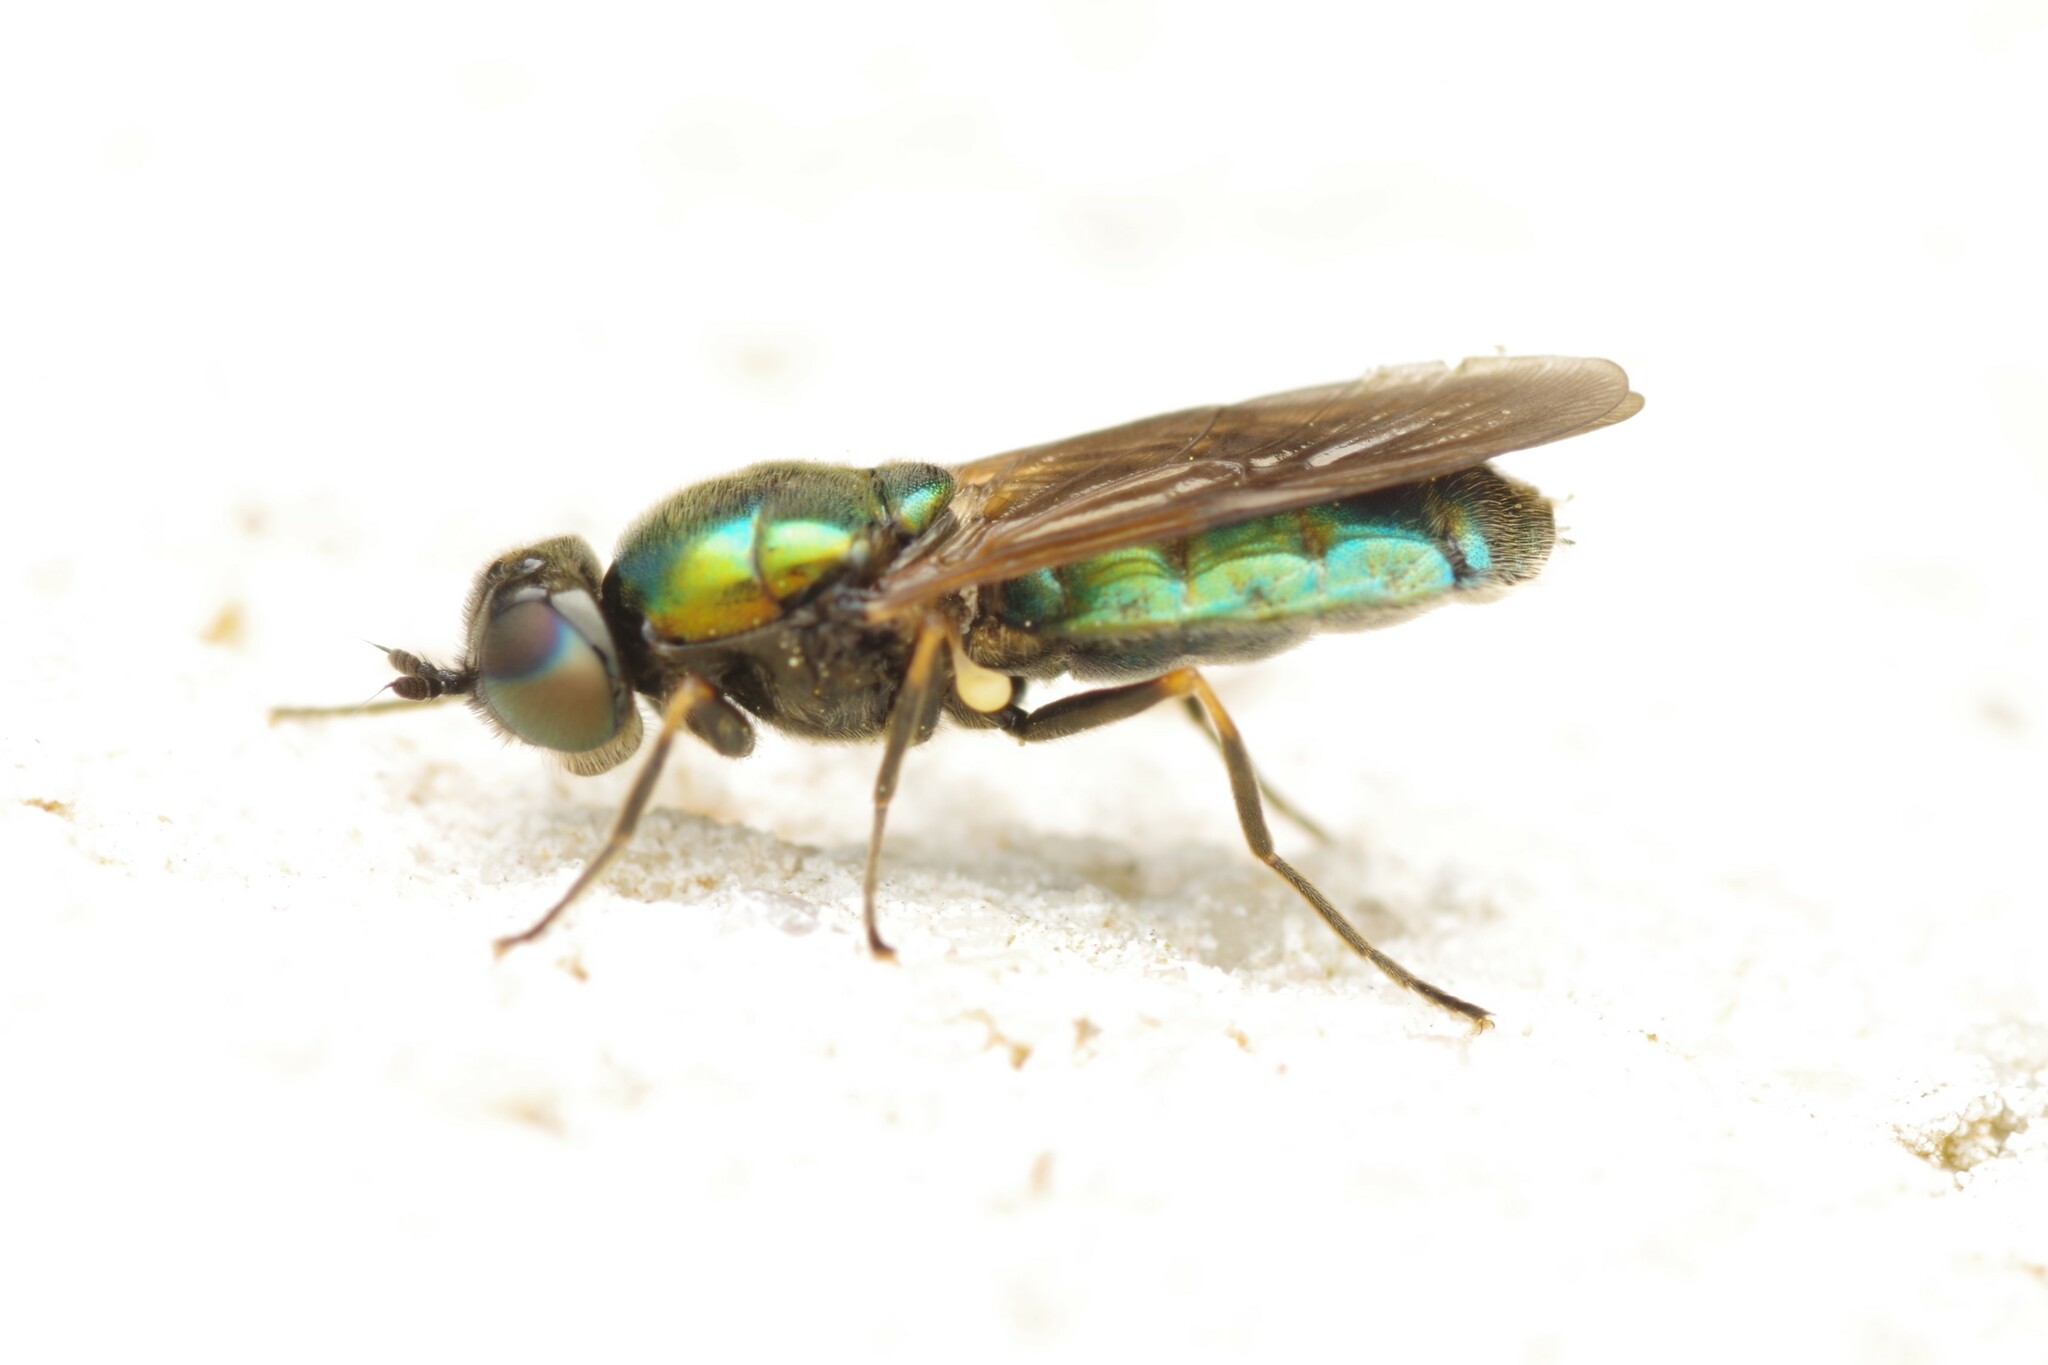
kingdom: Animalia
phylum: Arthropoda
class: Insecta
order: Diptera
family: Stratiomyidae
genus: Chloromyia
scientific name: Chloromyia formosa
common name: Soldier fly
